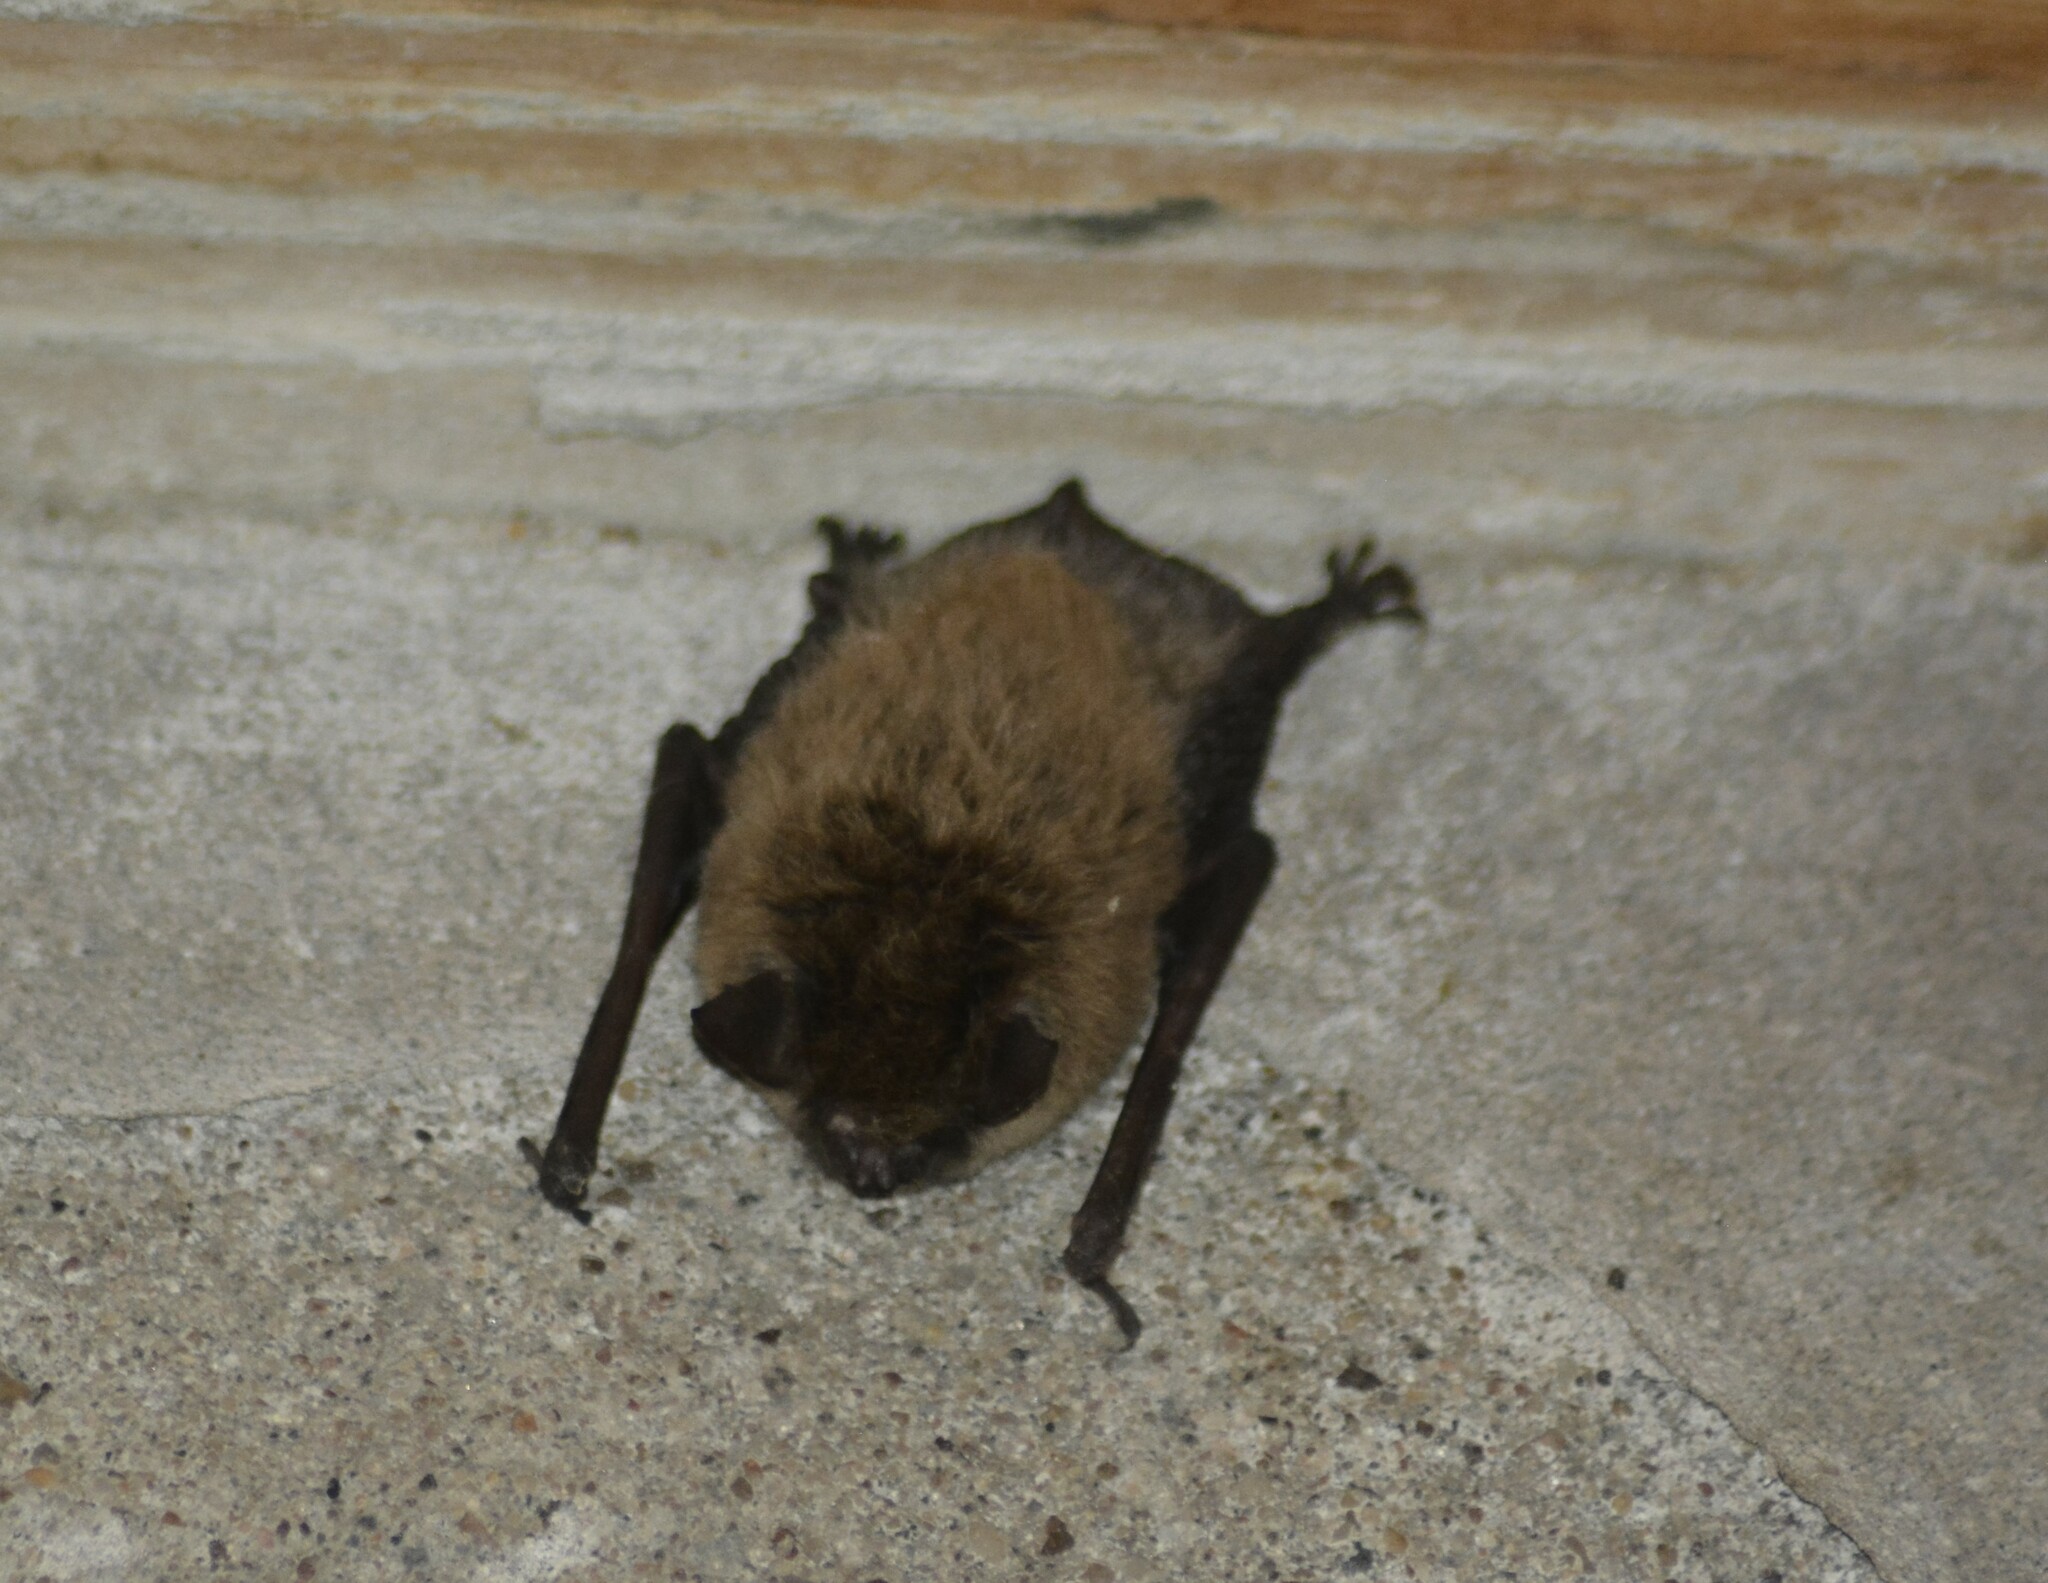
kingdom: Animalia
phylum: Chordata
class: Mammalia
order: Chiroptera
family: Vespertilionidae
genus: Myotis
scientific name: Myotis dinellii
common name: Dinelli's myotis
